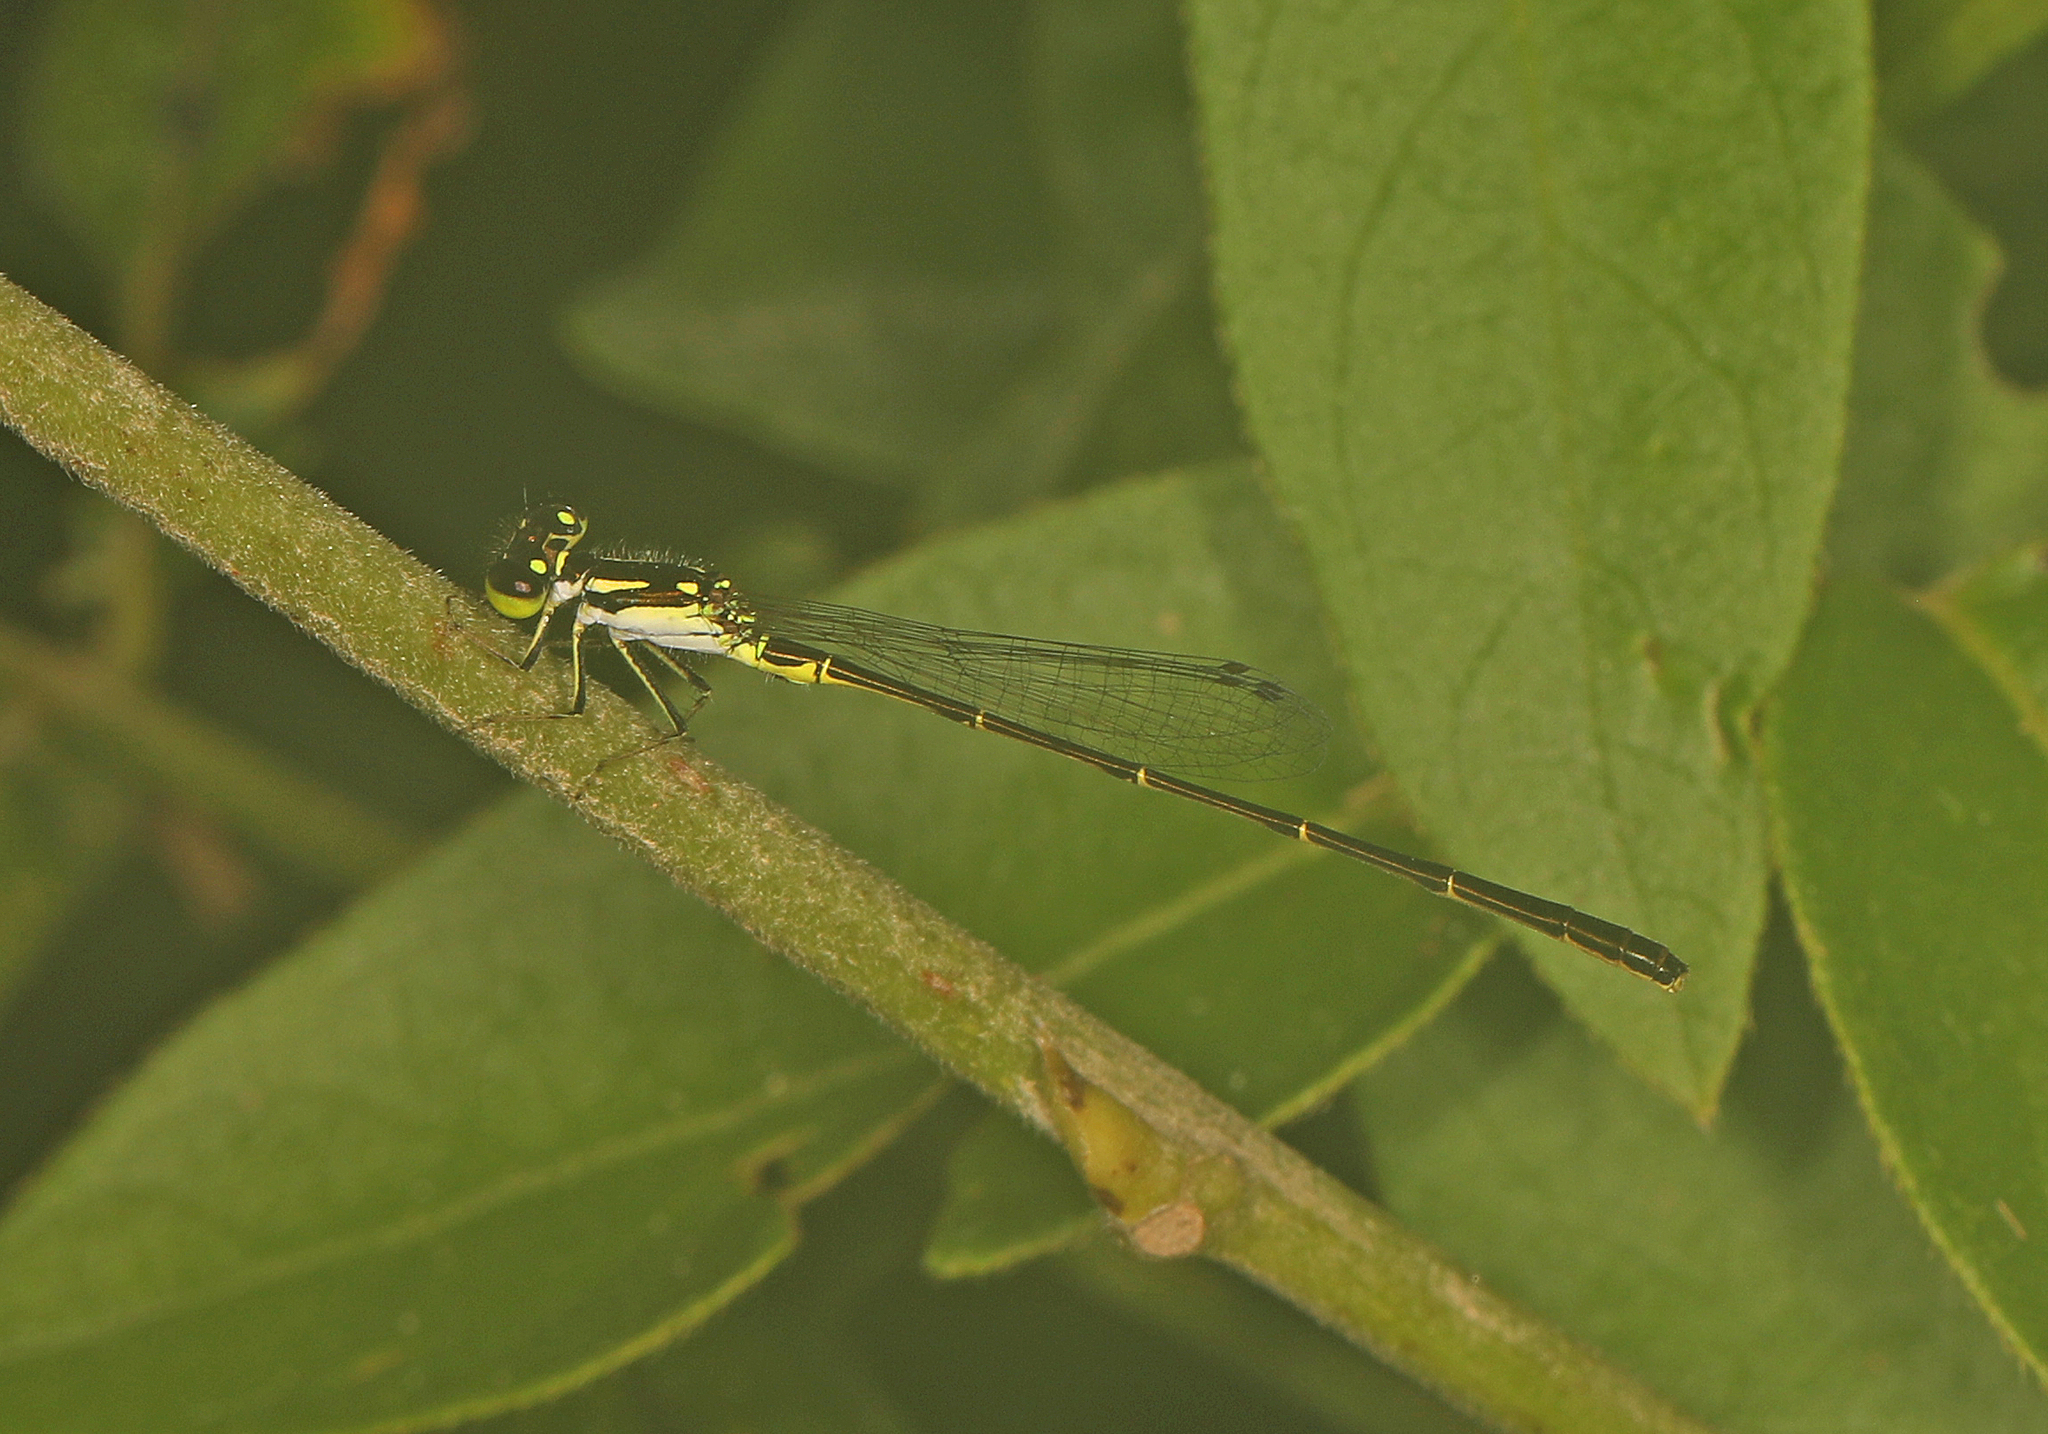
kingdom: Animalia
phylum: Arthropoda
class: Insecta
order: Odonata
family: Coenagrionidae
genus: Ischnura
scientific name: Ischnura posita
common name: Fragile forktail
